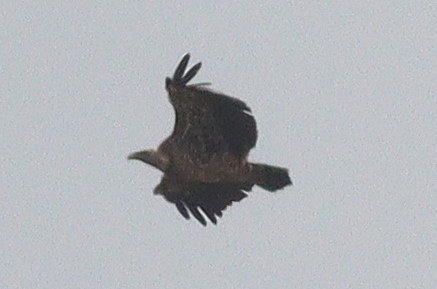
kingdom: Animalia
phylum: Chordata
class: Aves
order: Accipitriformes
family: Accipitridae
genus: Gyps
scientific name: Gyps rueppellii
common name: Rüppell's vulture
